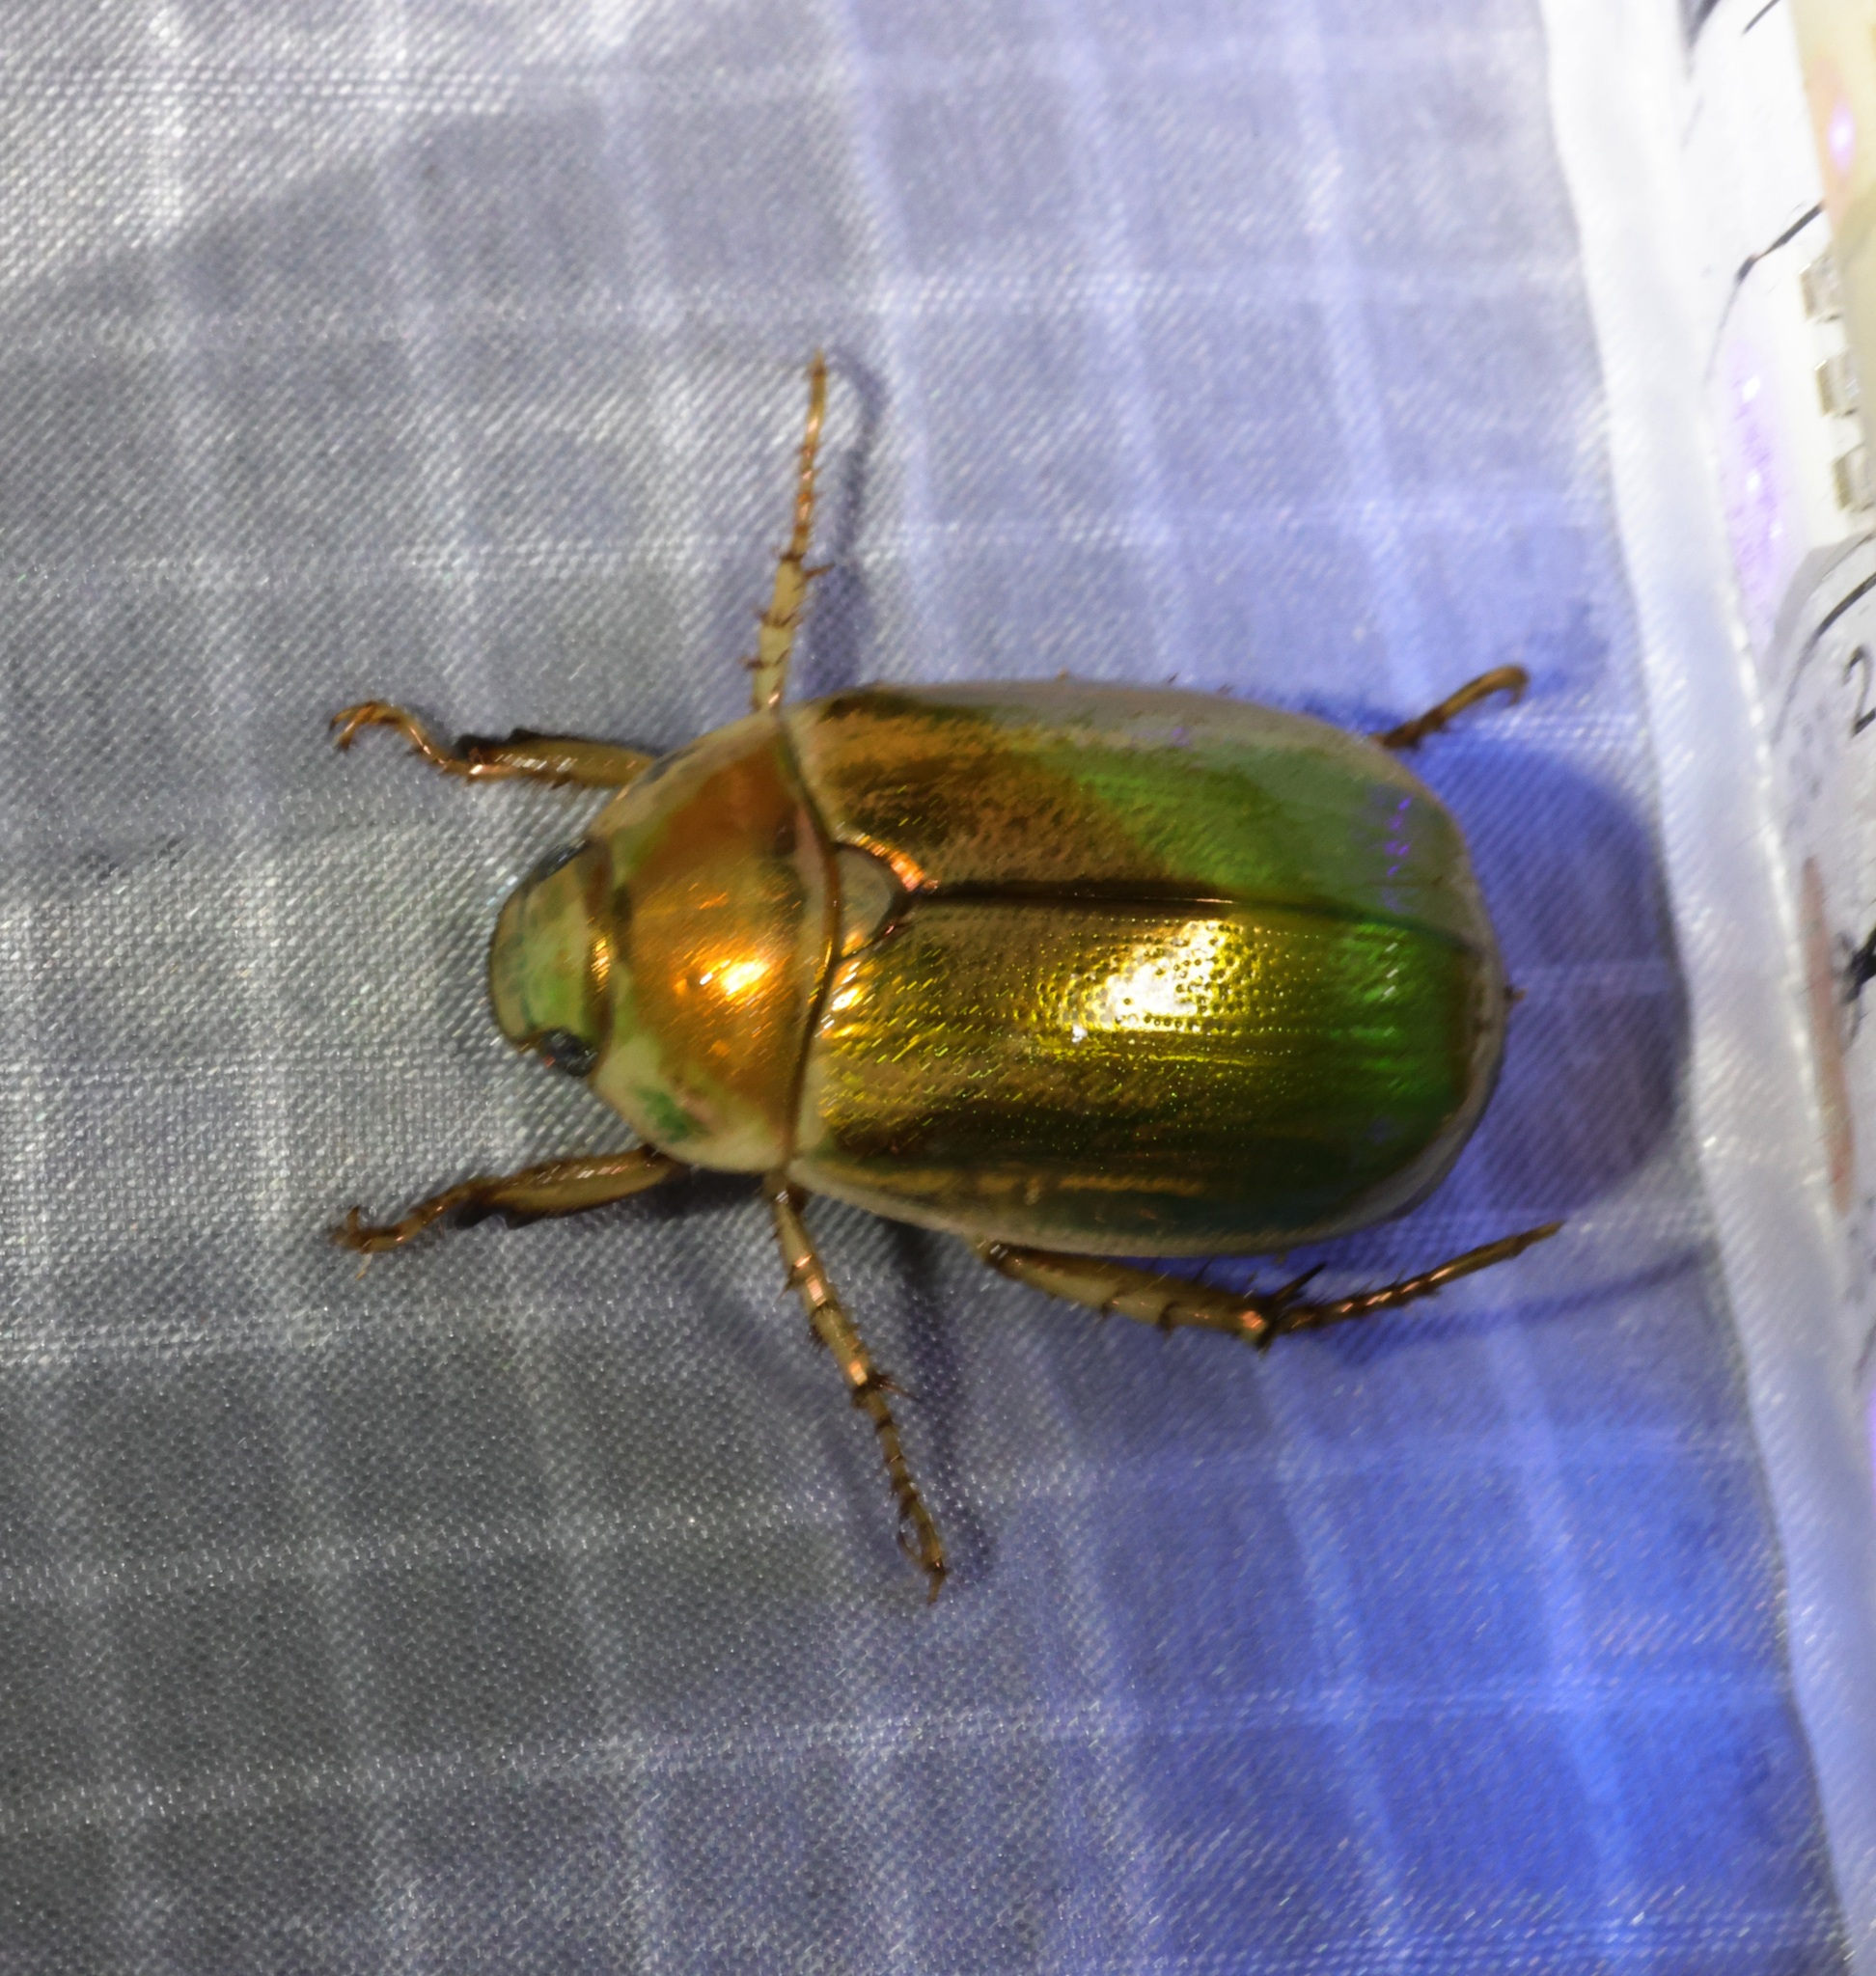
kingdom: Animalia
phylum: Arthropoda
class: Insecta
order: Coleoptera
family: Scarabaeidae
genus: Mimela
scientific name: Mimela specularis
